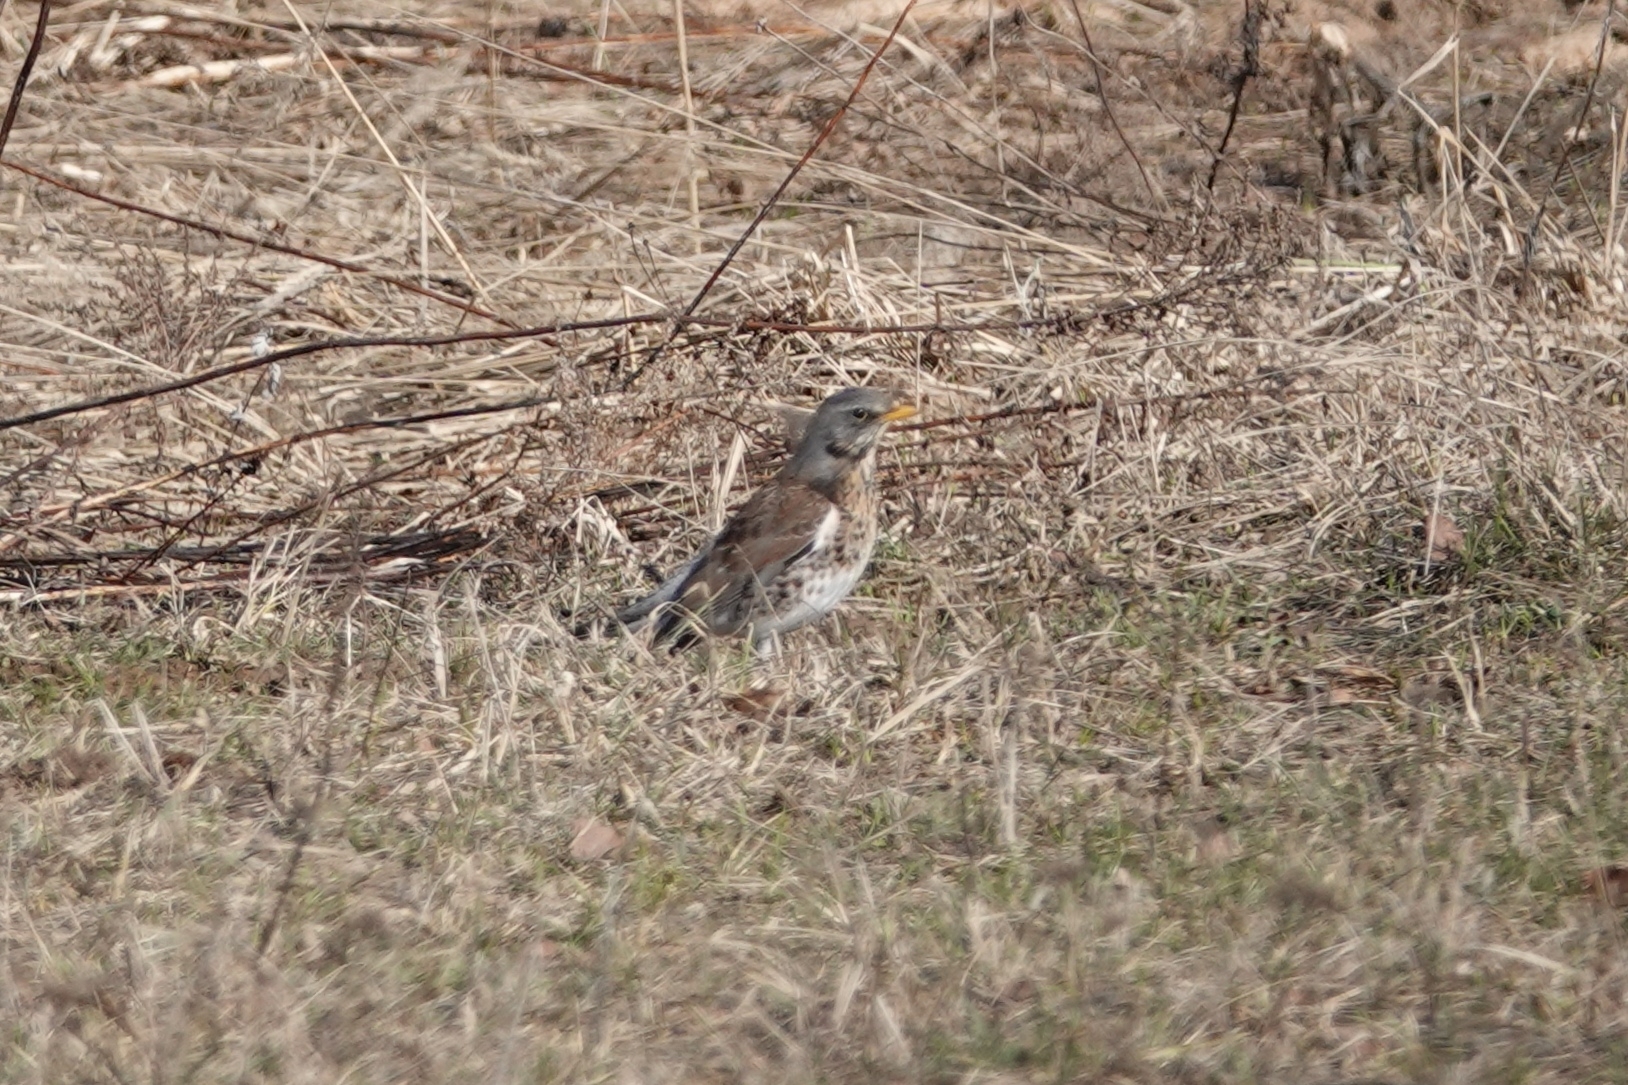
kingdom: Animalia
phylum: Chordata
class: Aves
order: Passeriformes
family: Turdidae
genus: Turdus
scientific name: Turdus pilaris
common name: Fieldfare
